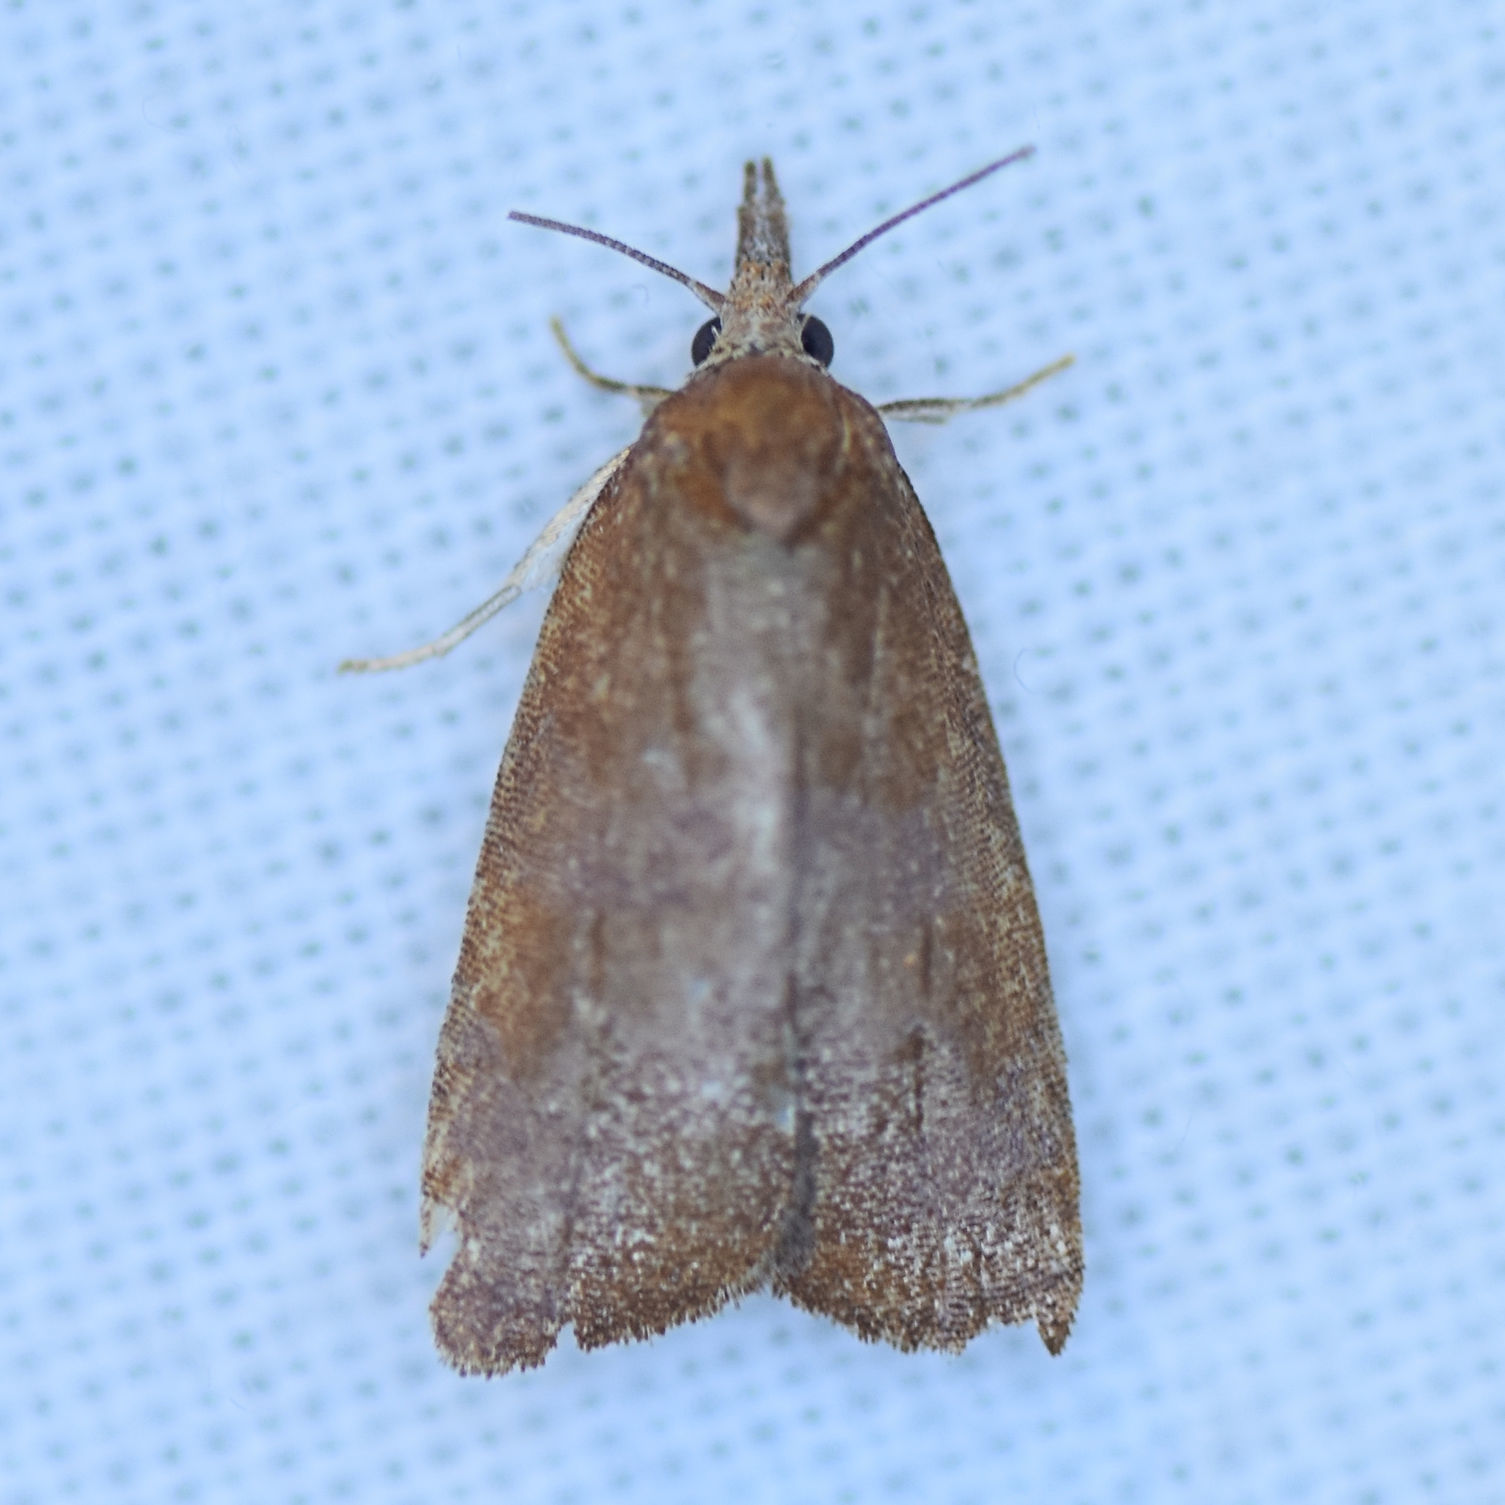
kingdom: Animalia
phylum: Arthropoda
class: Insecta
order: Lepidoptera
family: Tortricidae
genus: Cenopis
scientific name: Cenopis diluticostana
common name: Spring dead-leaf roller moth
